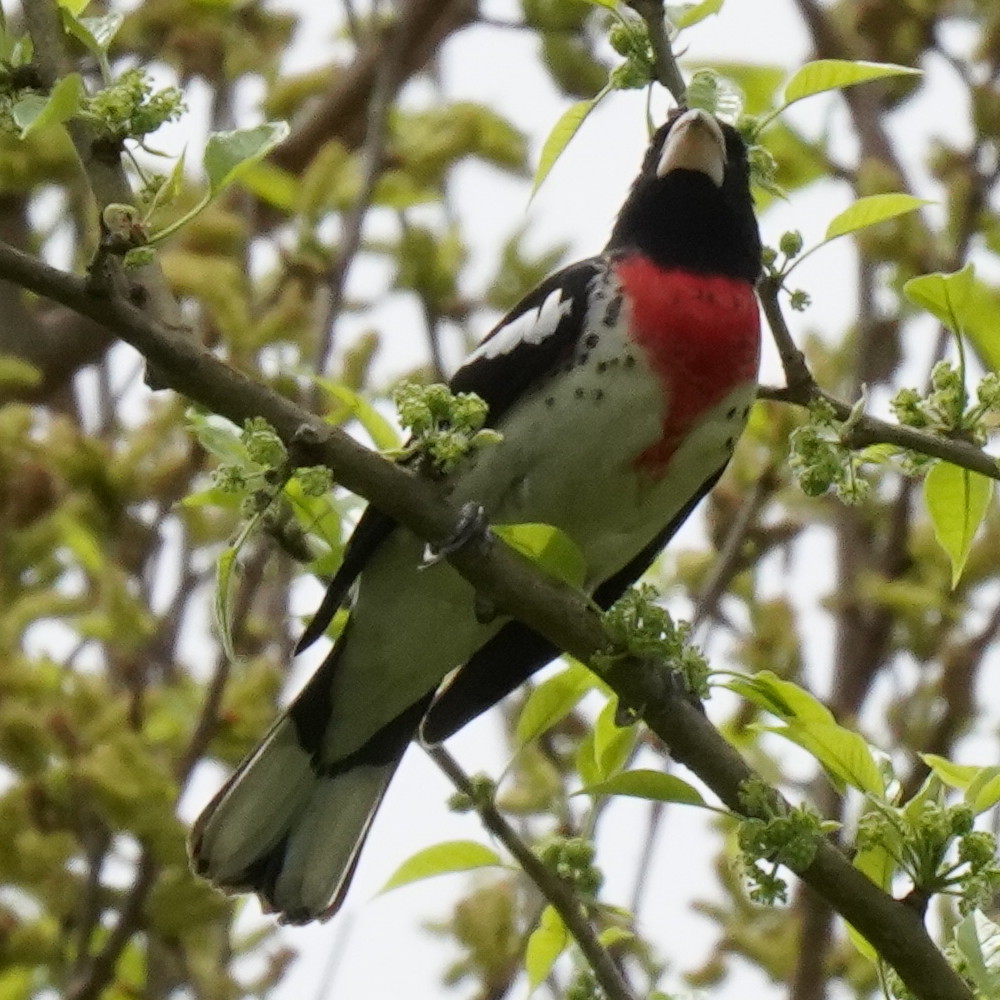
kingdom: Animalia
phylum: Chordata
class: Aves
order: Passeriformes
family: Cardinalidae
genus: Pheucticus
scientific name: Pheucticus ludovicianus
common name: Rose-breasted grosbeak
